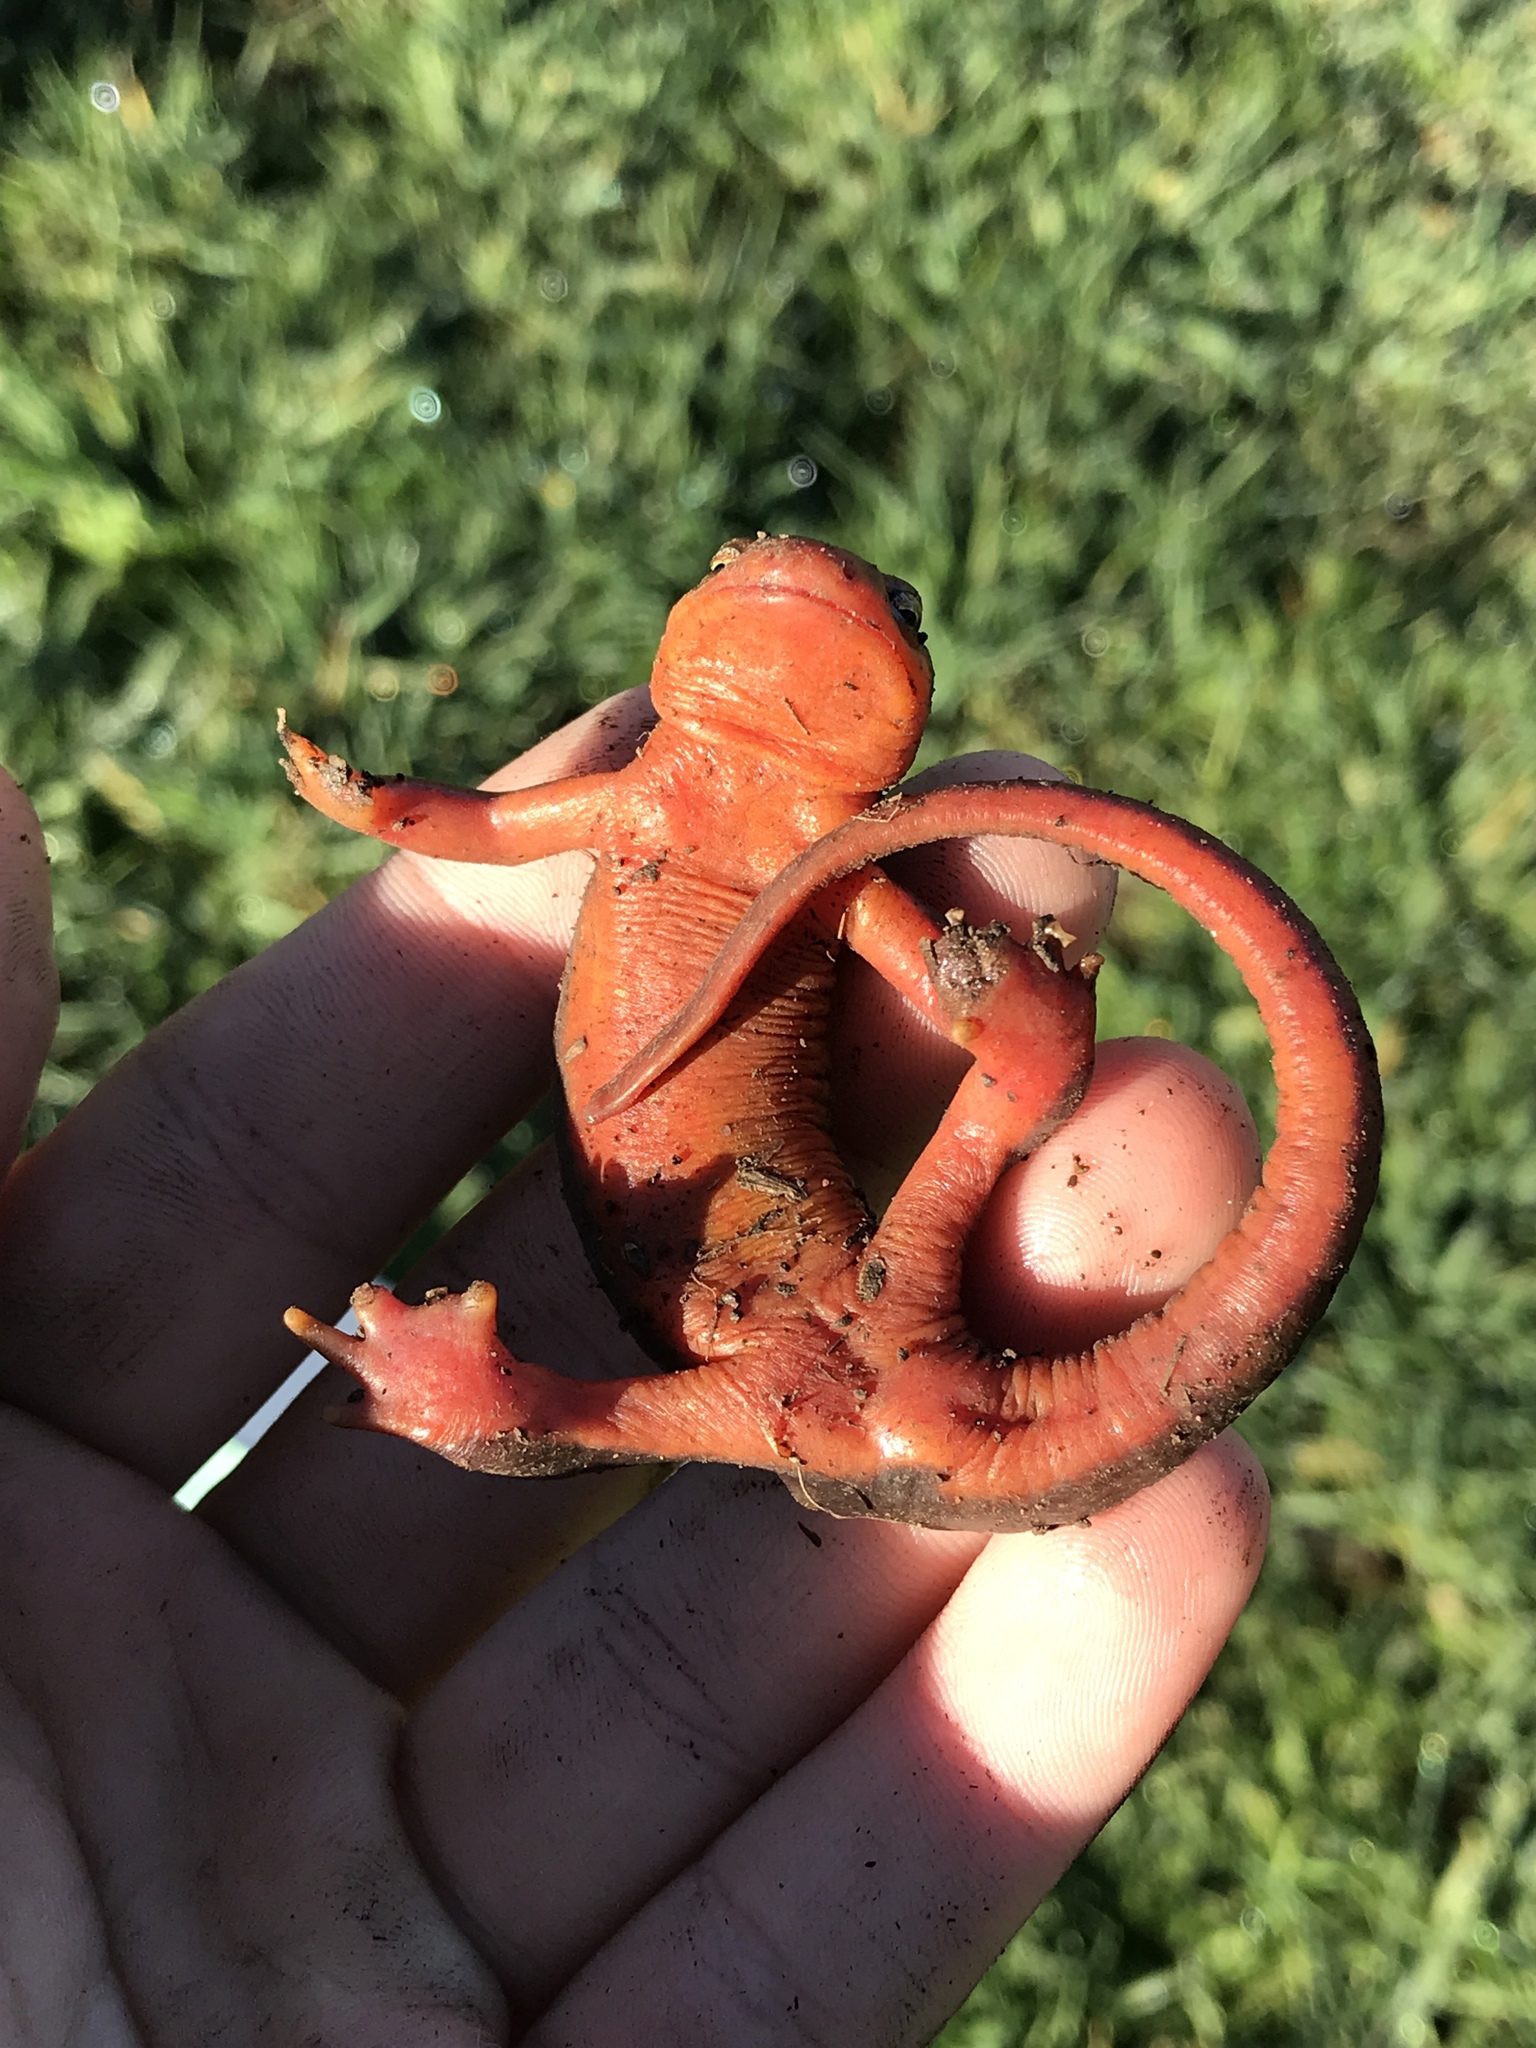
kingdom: Animalia
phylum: Chordata
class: Amphibia
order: Caudata
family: Salamandridae
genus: Taricha
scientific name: Taricha torosa
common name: California newt
